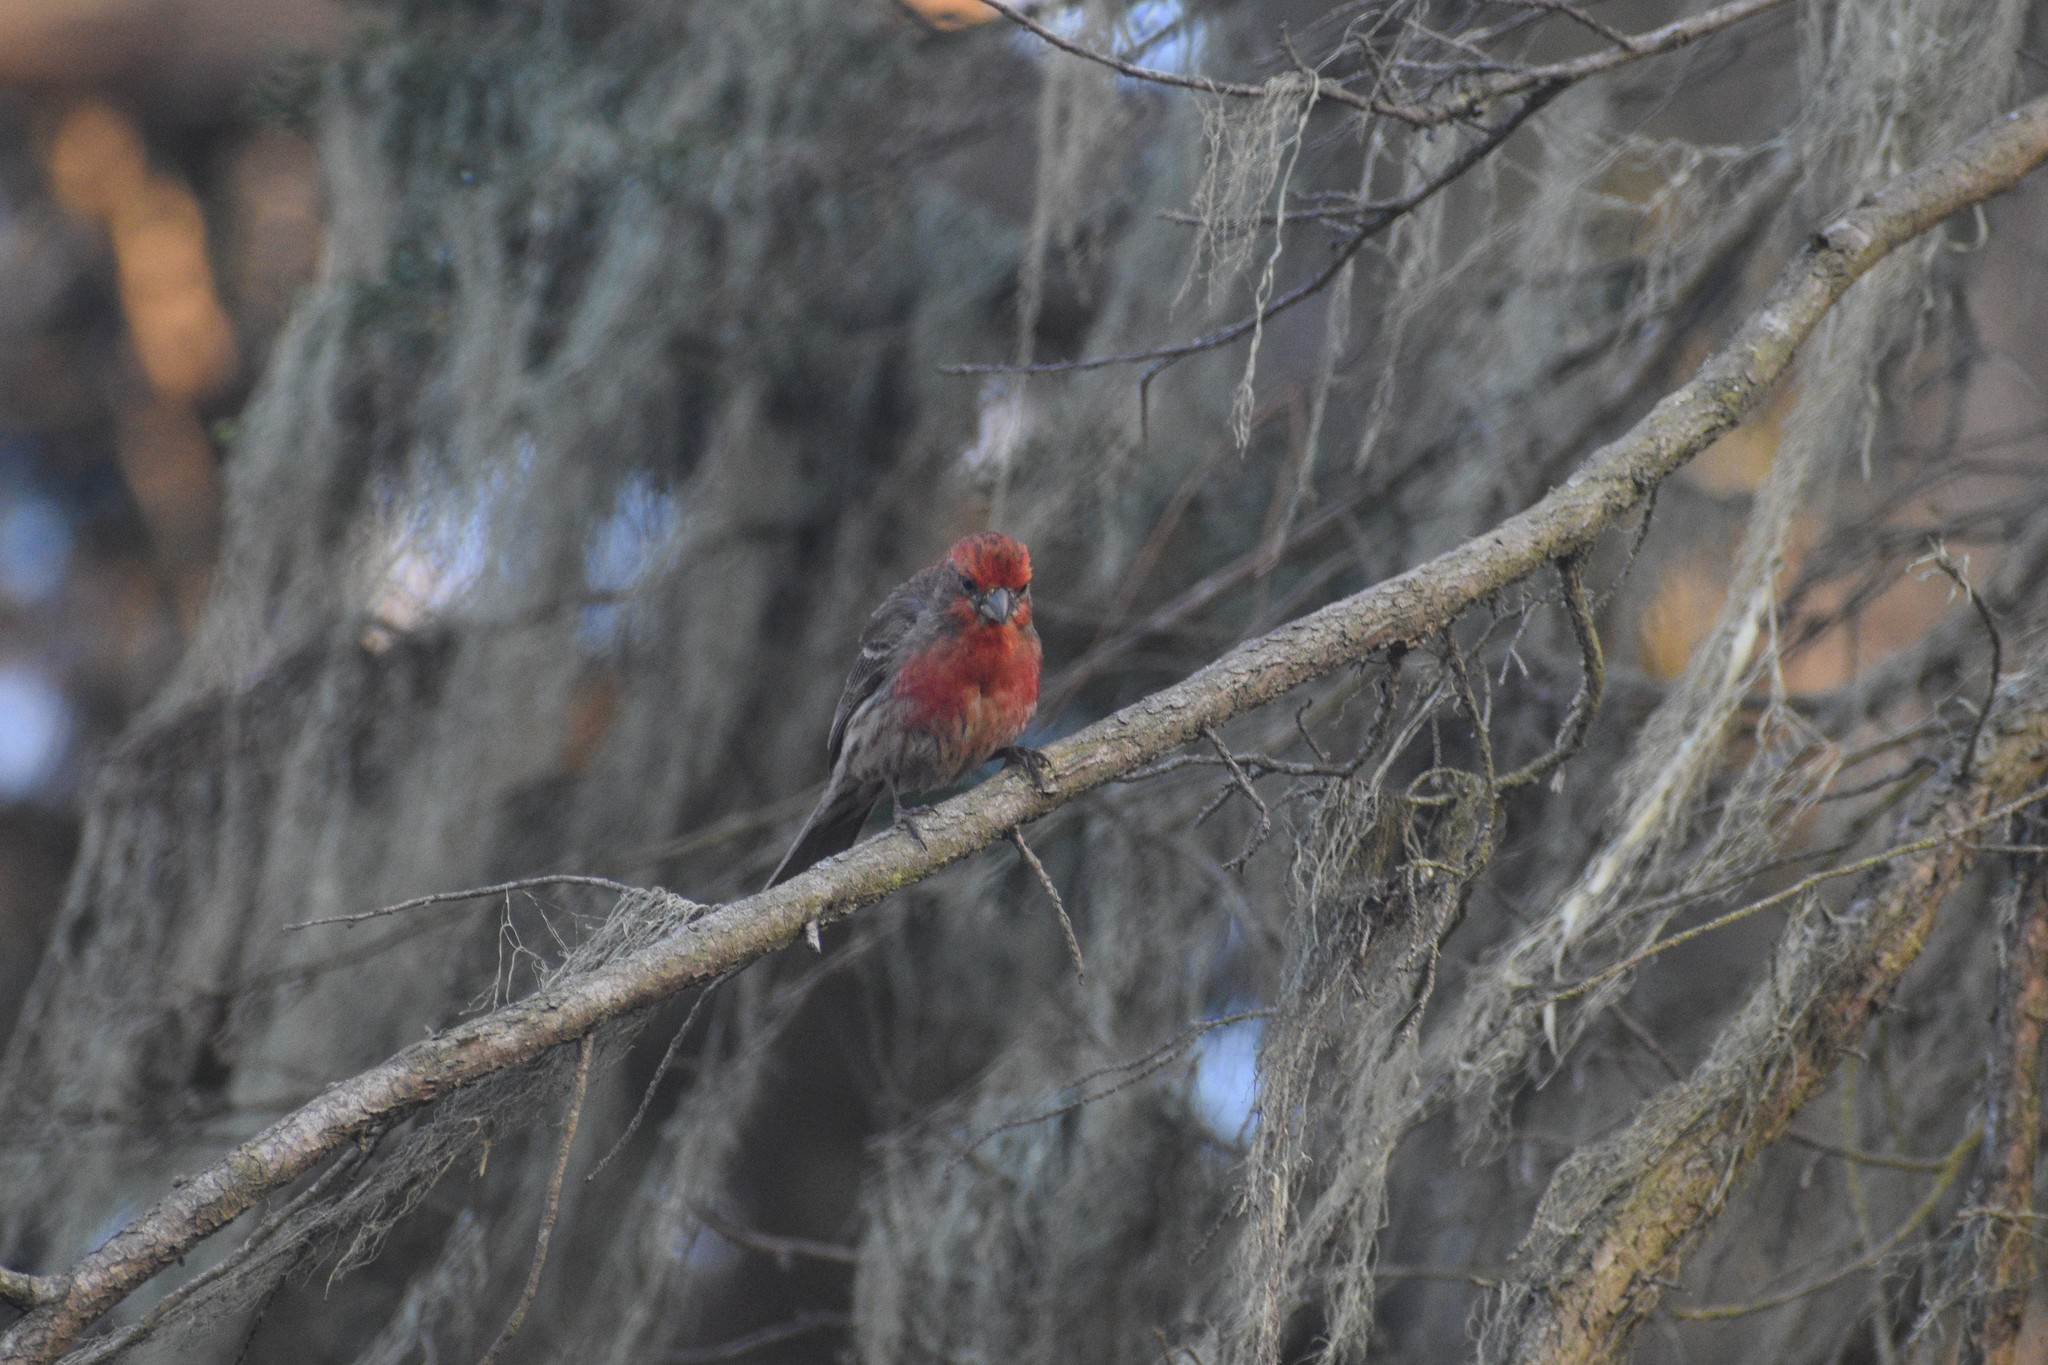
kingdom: Animalia
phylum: Chordata
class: Aves
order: Passeriformes
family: Fringillidae
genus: Haemorhous
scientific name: Haemorhous mexicanus
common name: House finch
